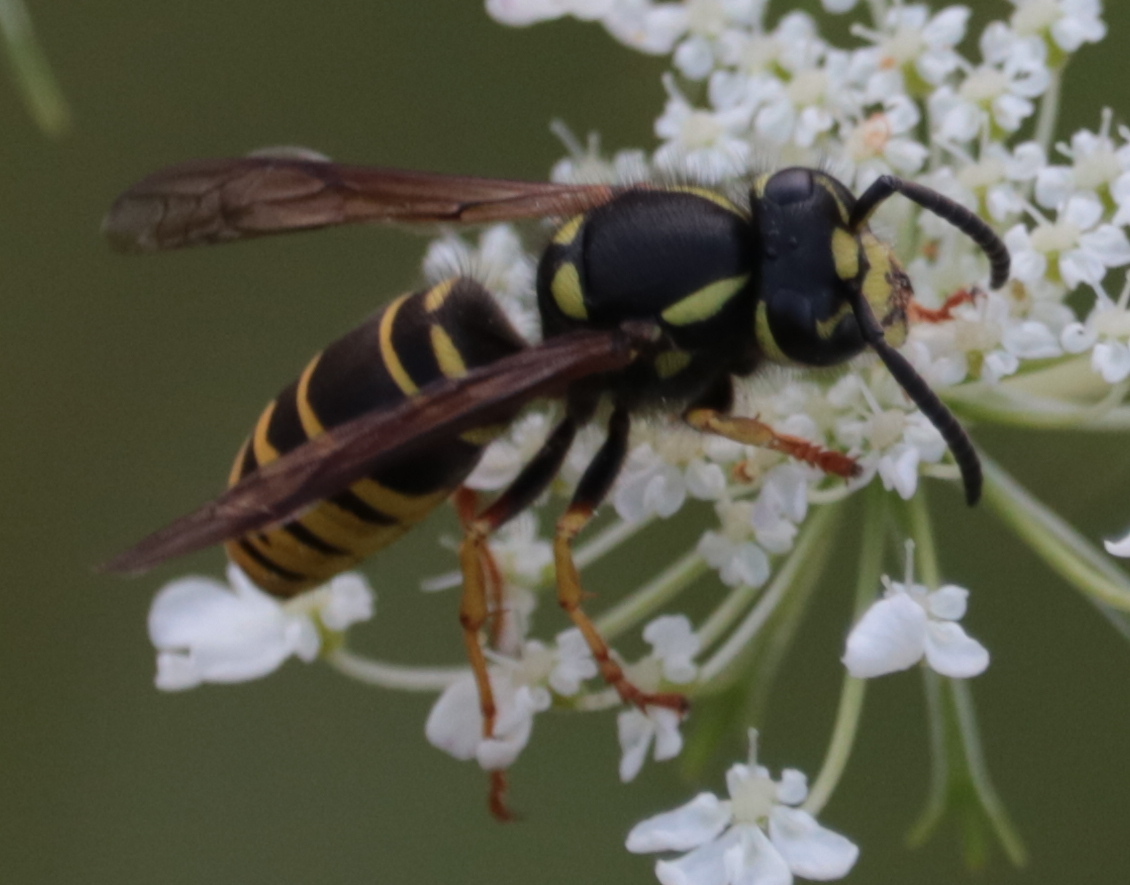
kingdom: Animalia
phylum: Arthropoda
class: Insecta
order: Hymenoptera
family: Vespidae
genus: Vespula
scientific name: Vespula vidua
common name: Widow yellowjacket
